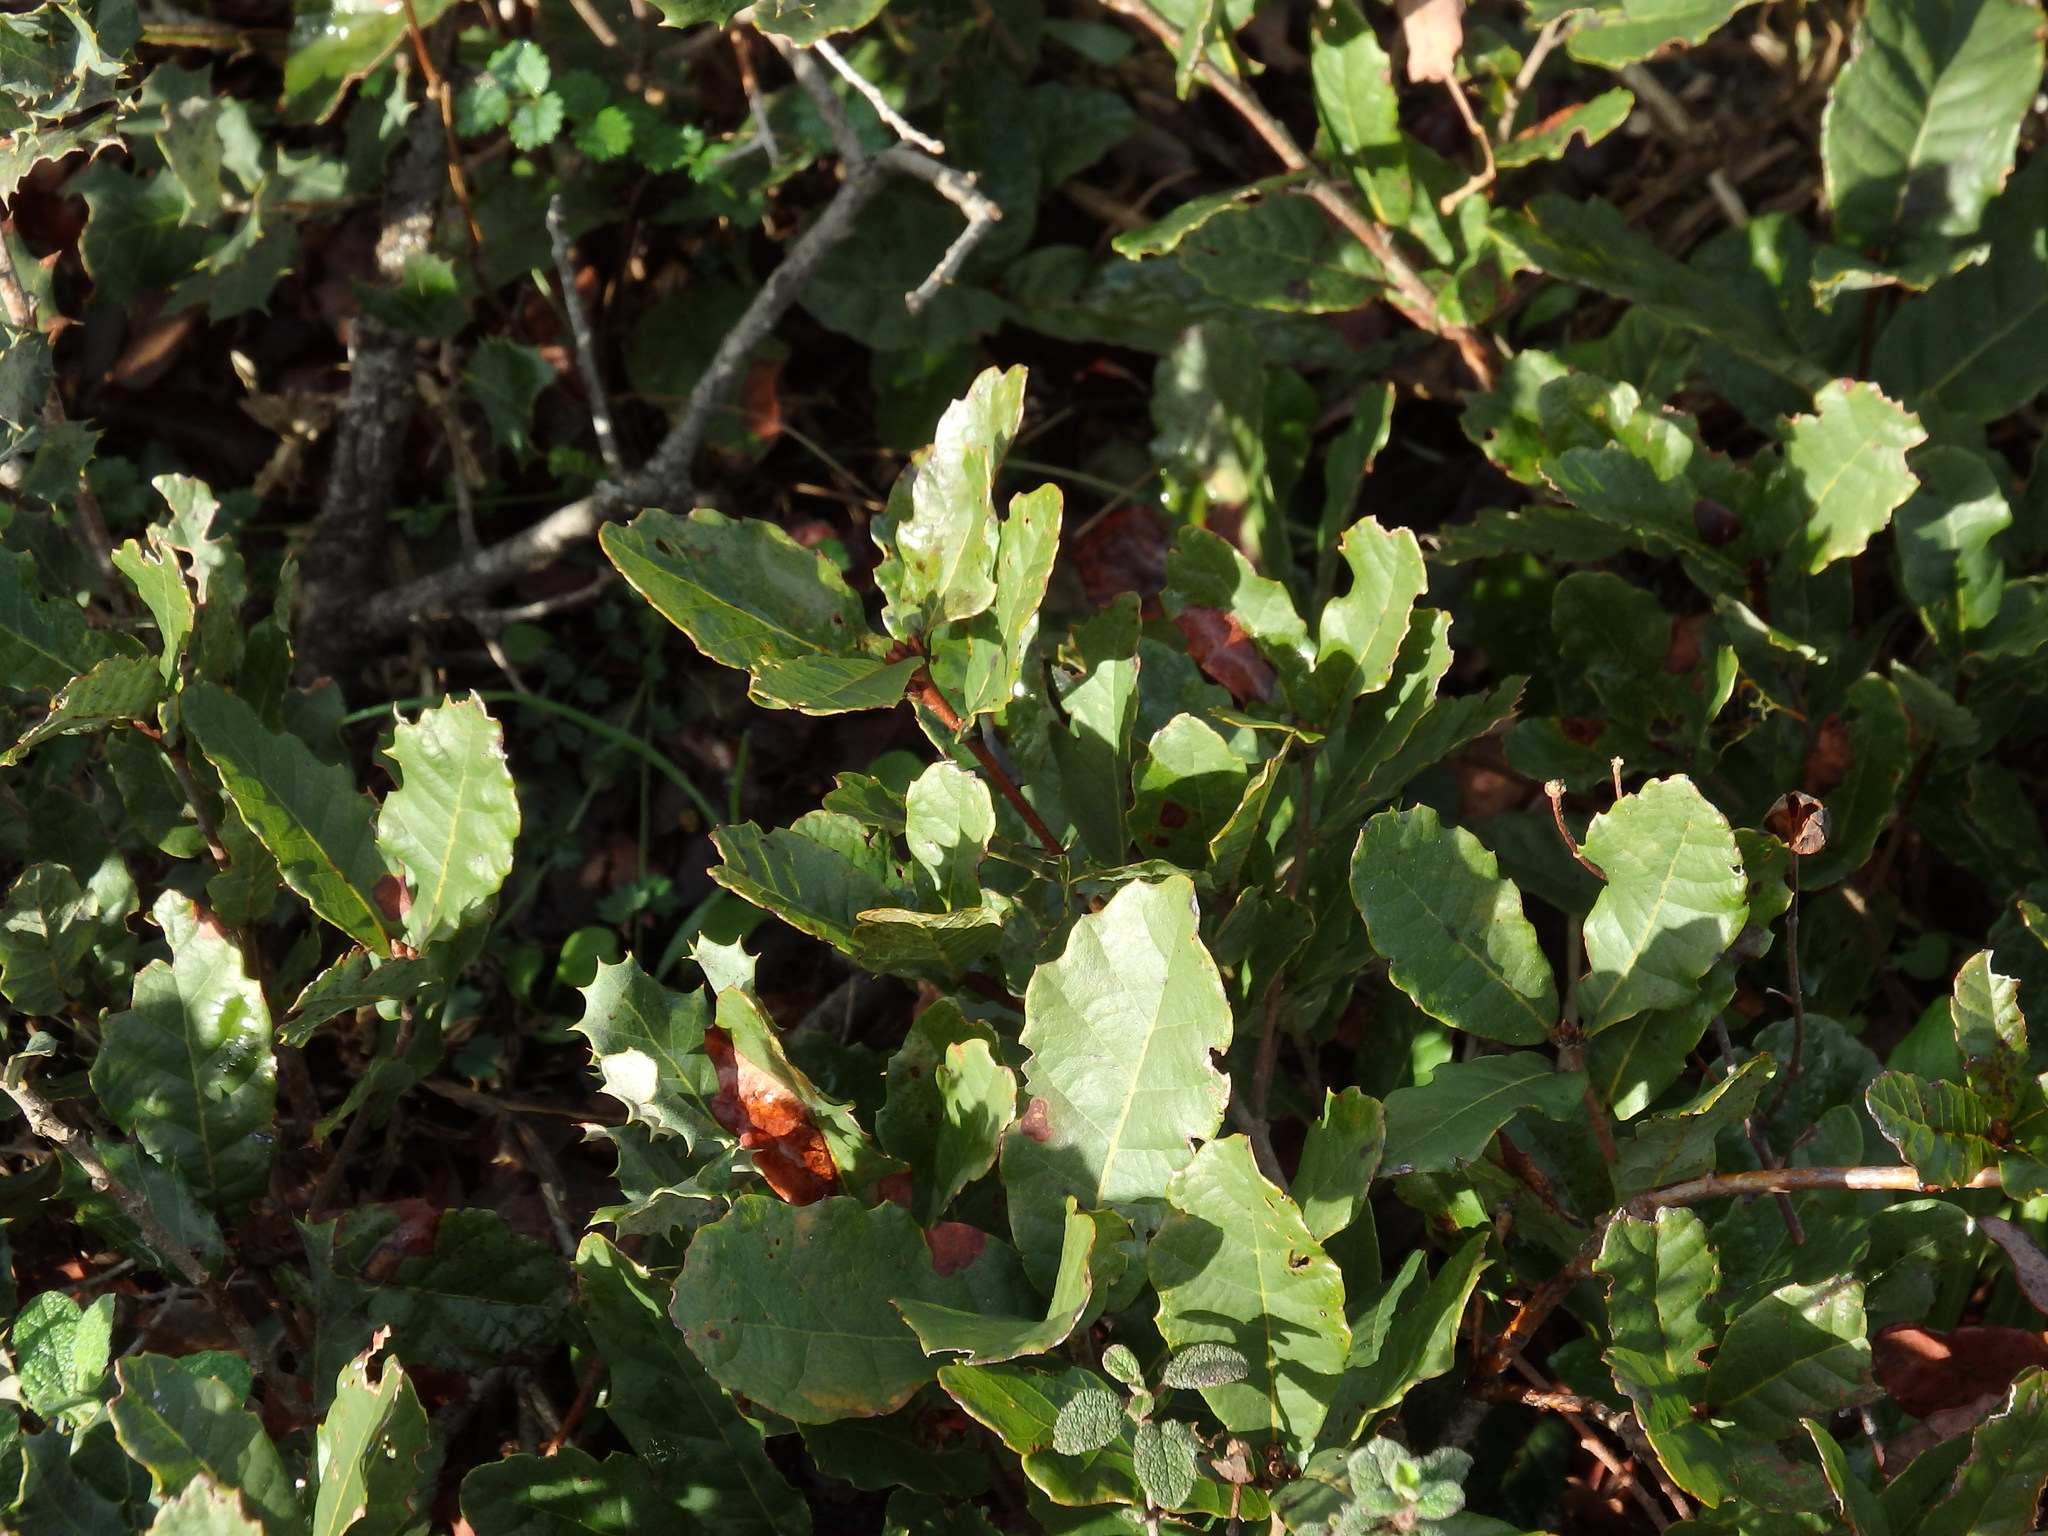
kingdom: Plantae
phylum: Tracheophyta
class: Magnoliopsida
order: Fagales
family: Fagaceae
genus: Quercus
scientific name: Quercus lusitanica
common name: Scrub gall oak
